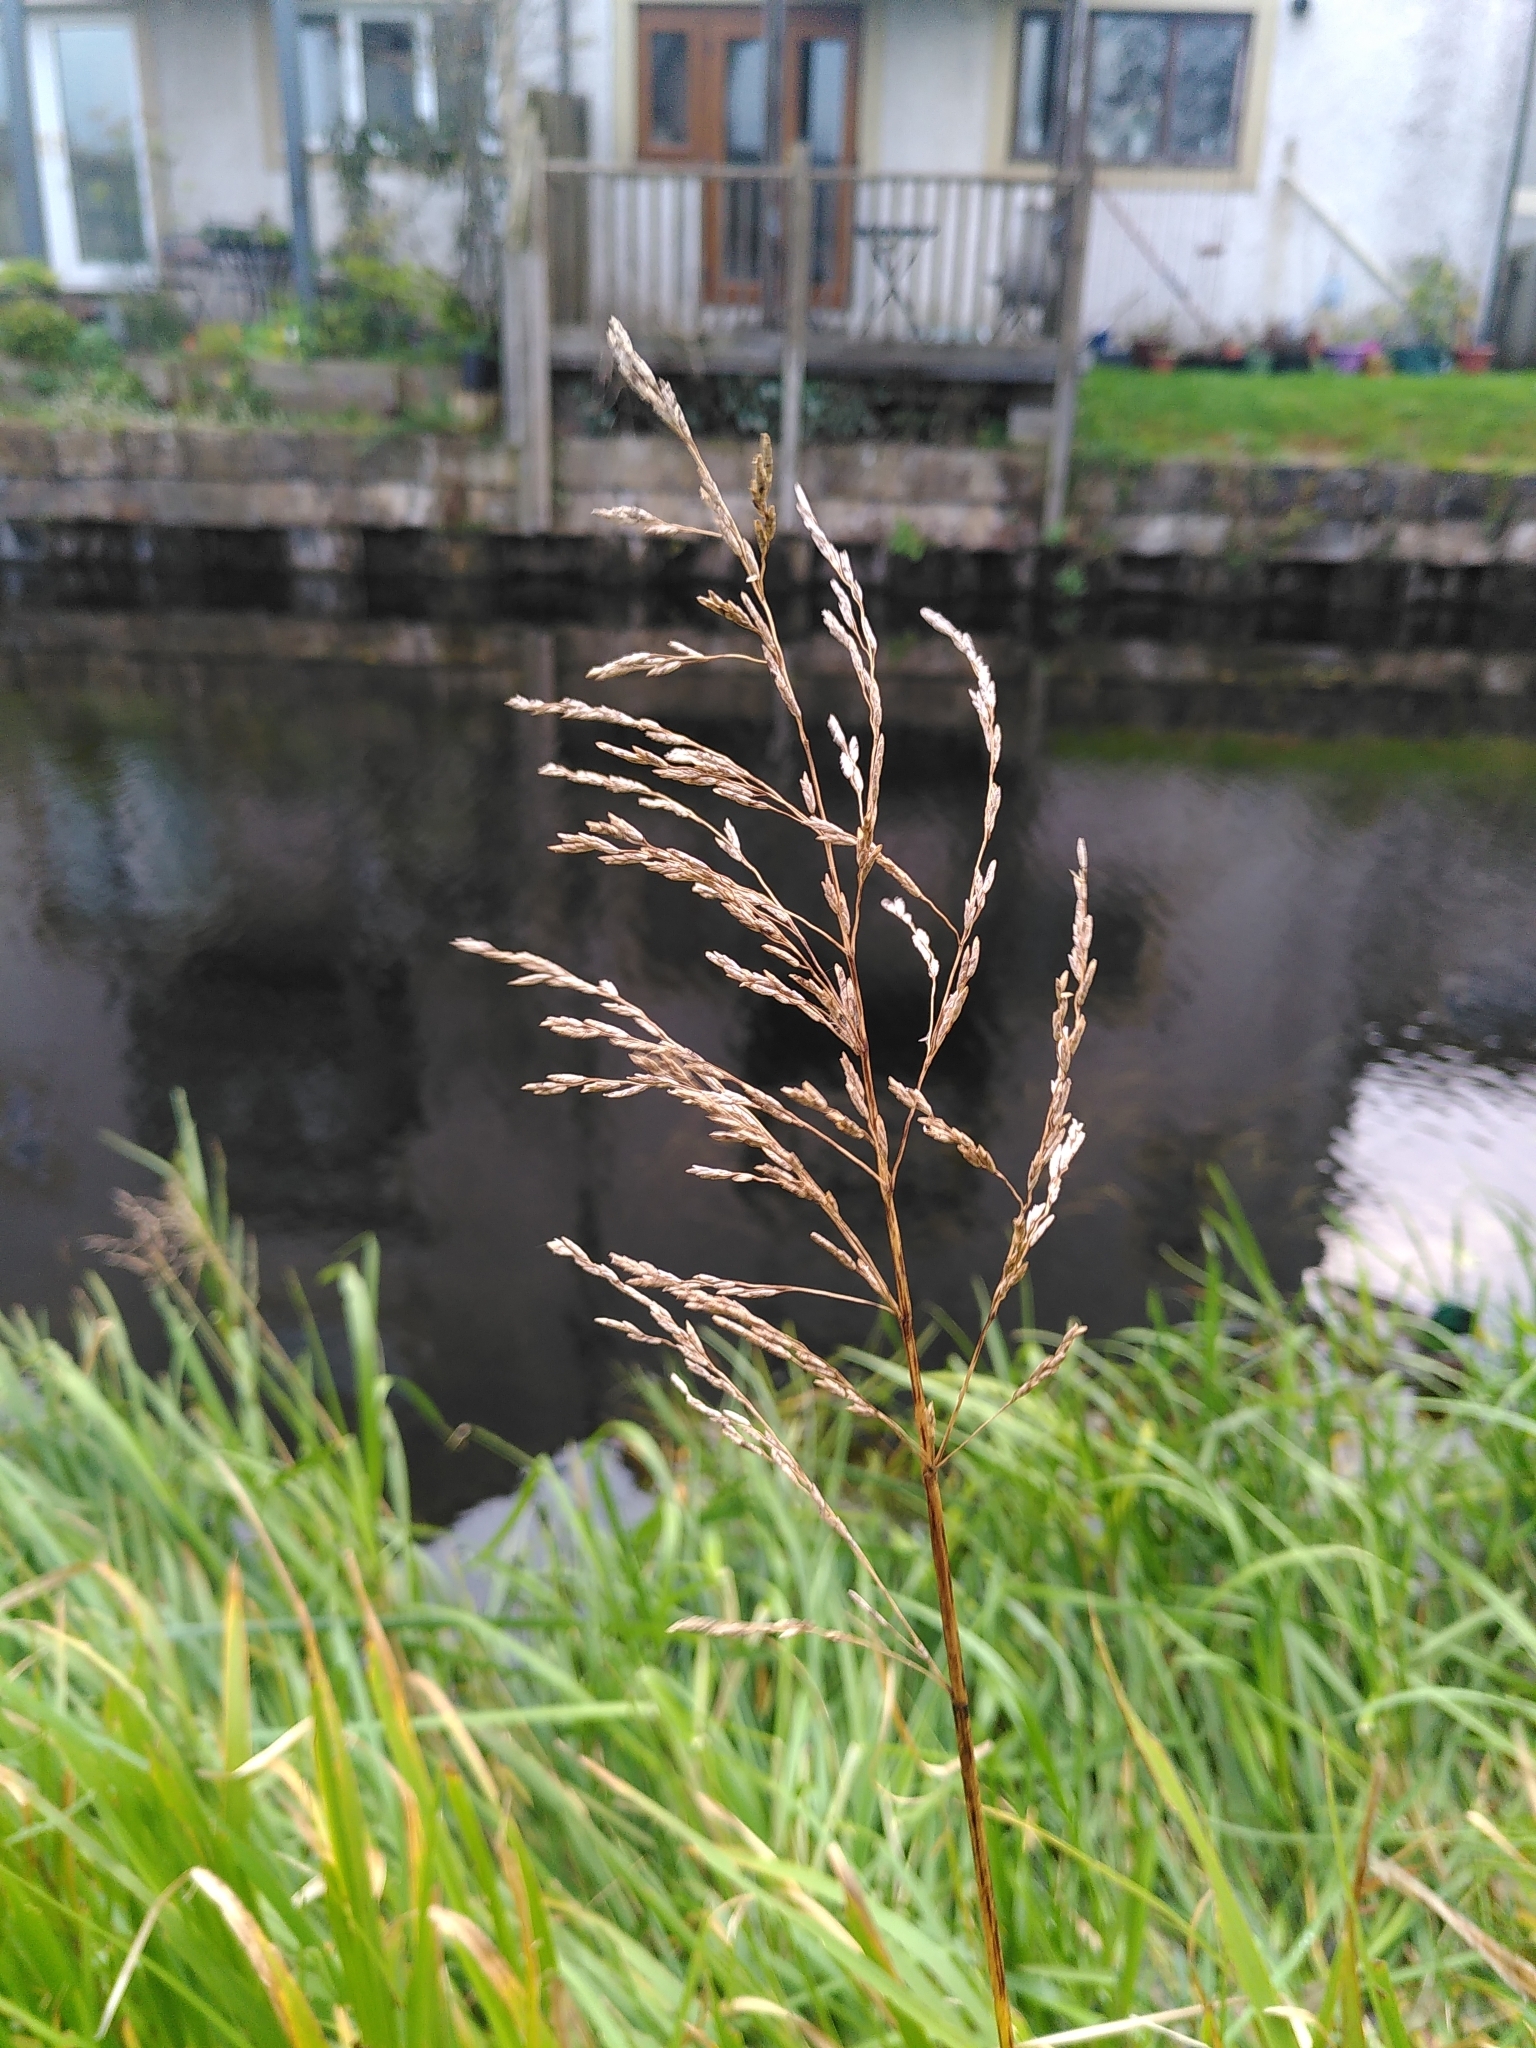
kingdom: Plantae
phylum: Tracheophyta
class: Liliopsida
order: Poales
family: Poaceae
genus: Glyceria
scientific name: Glyceria maxima
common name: Reed mannagrass
